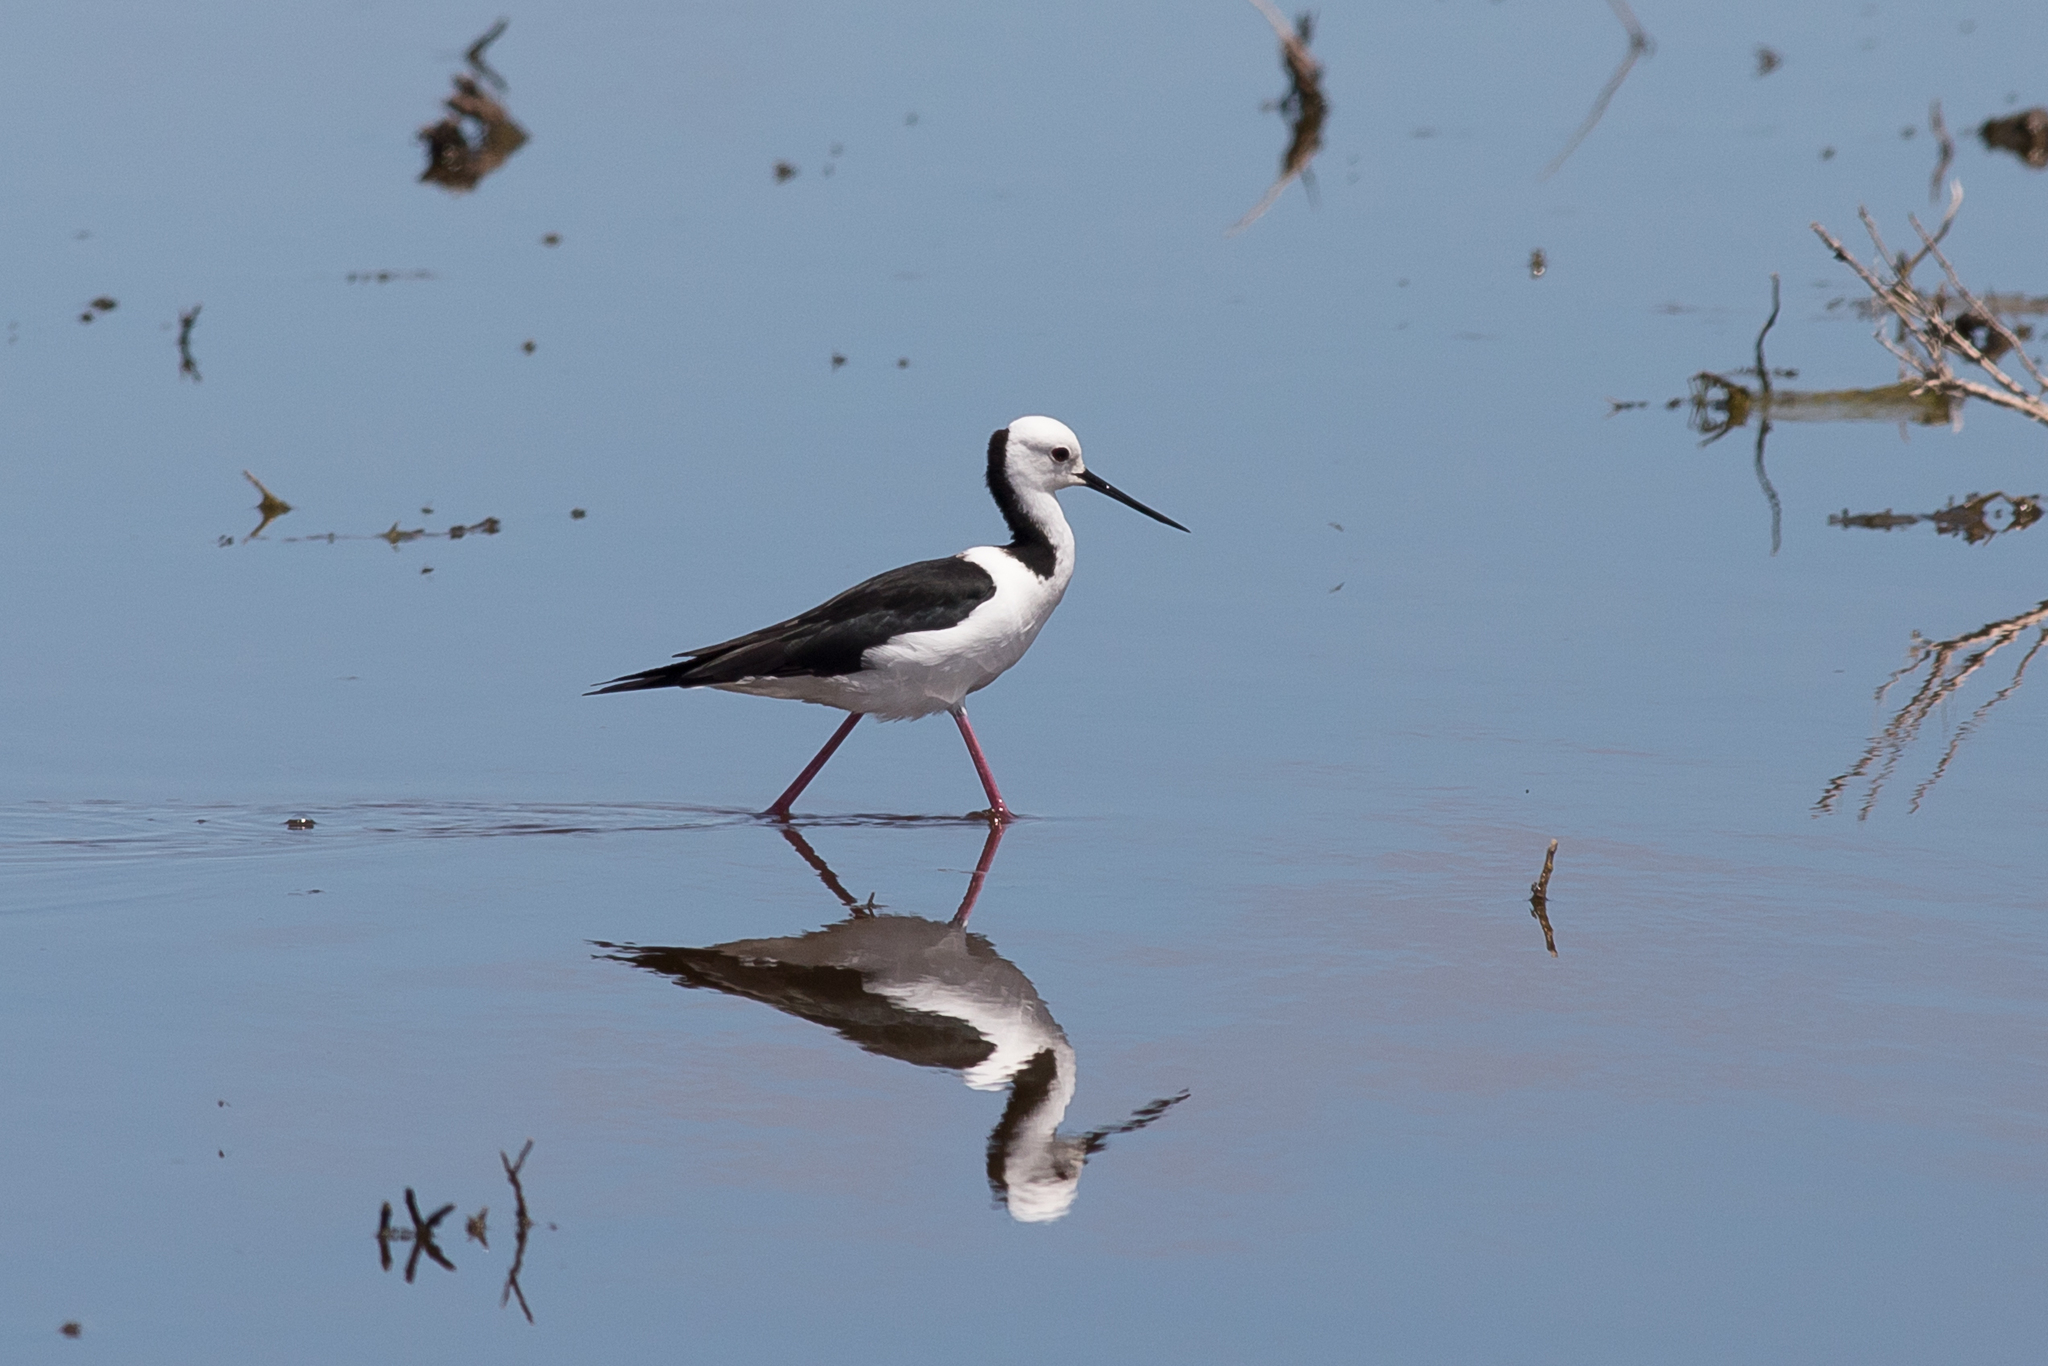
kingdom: Animalia
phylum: Chordata
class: Aves
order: Charadriiformes
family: Recurvirostridae
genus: Himantopus
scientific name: Himantopus leucocephalus
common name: White-headed stilt
